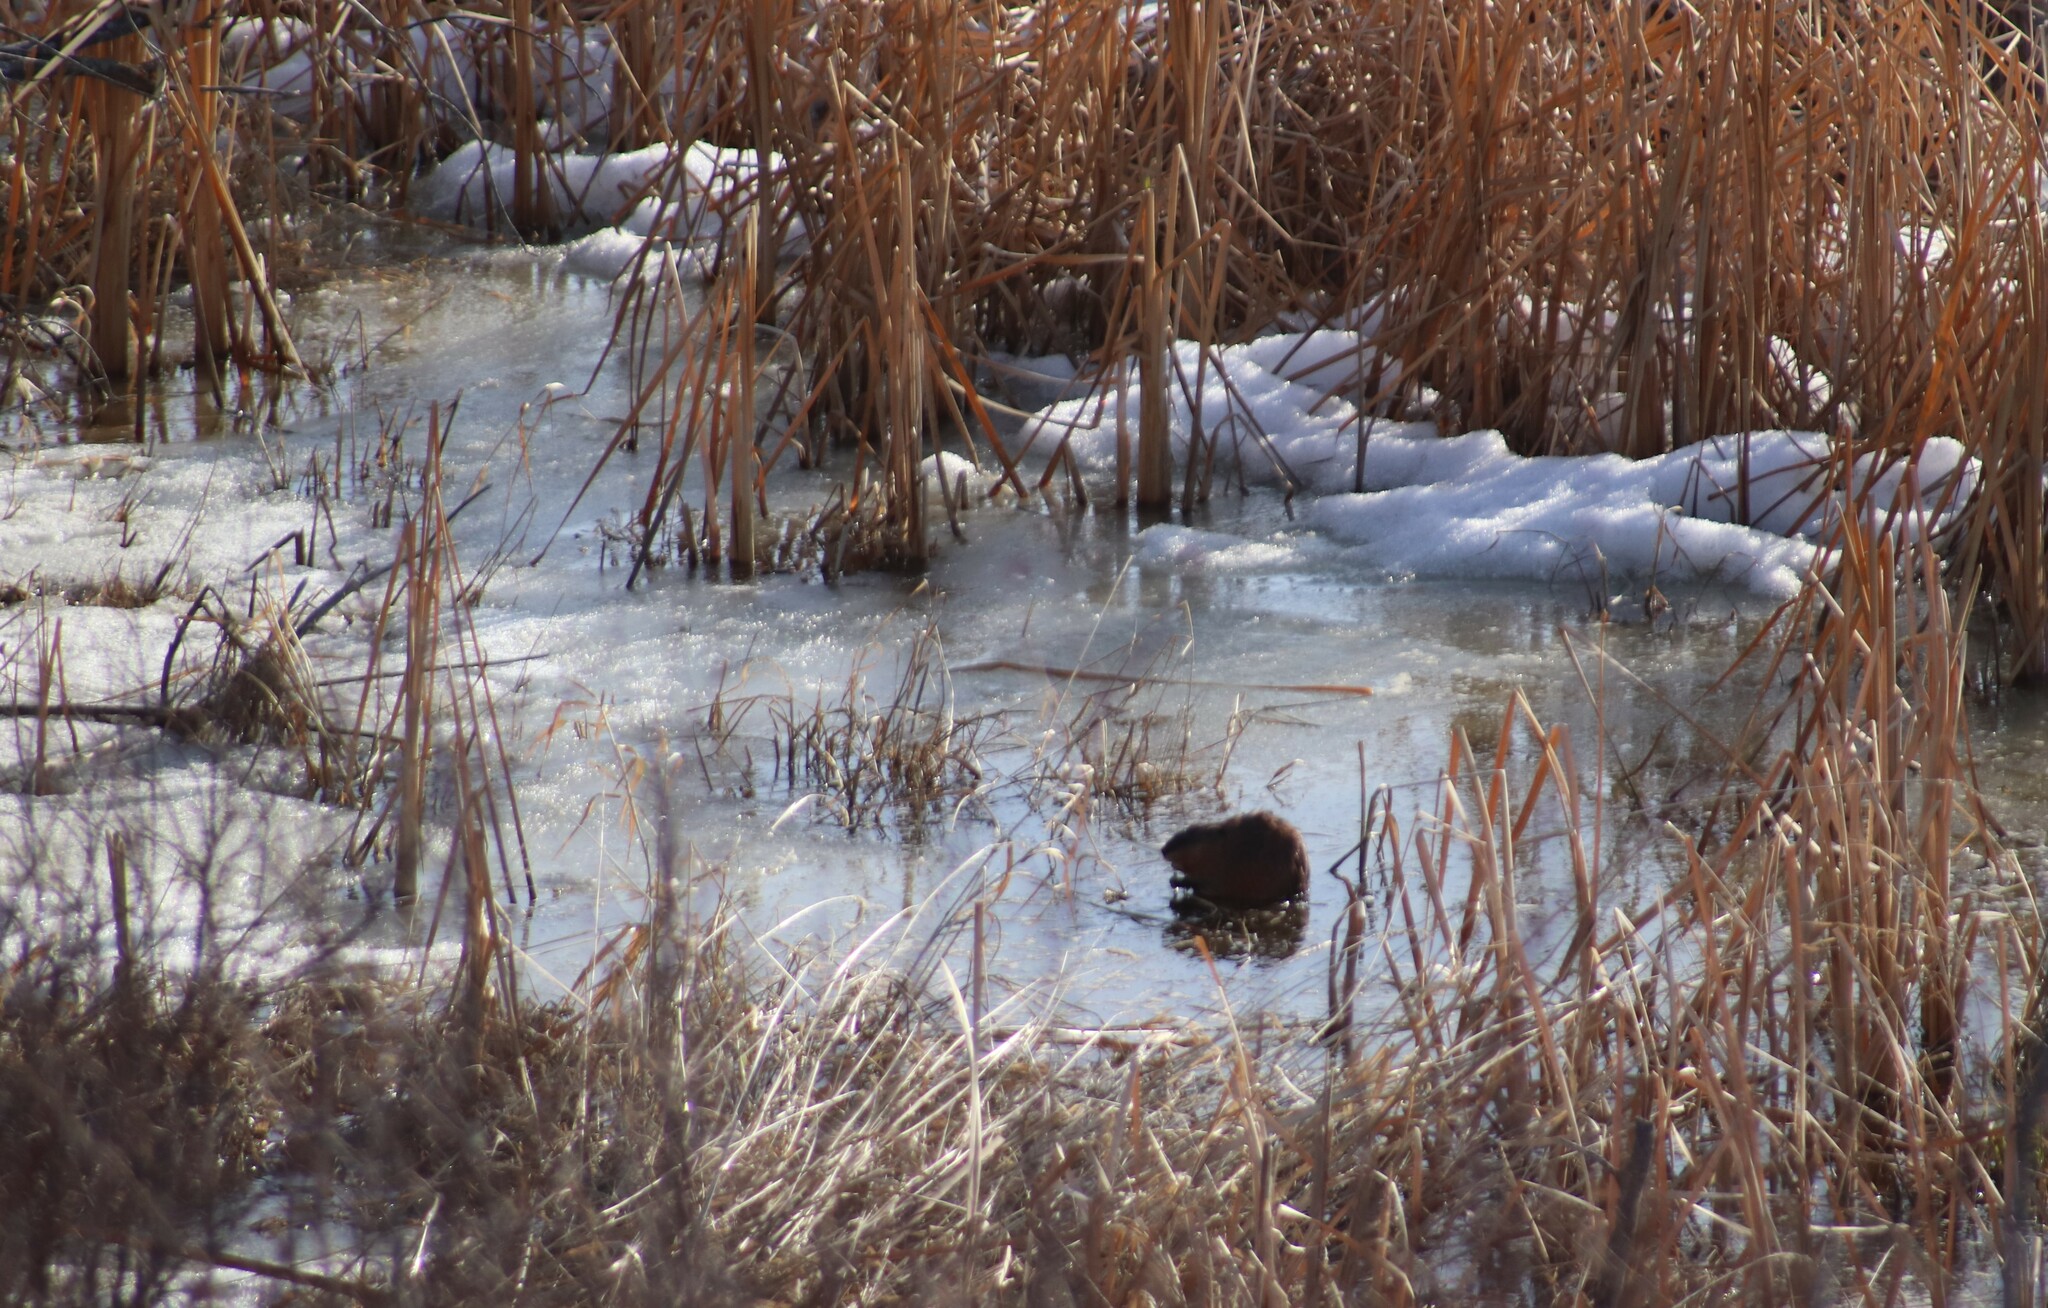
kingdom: Animalia
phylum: Chordata
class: Mammalia
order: Rodentia
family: Cricetidae
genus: Ondatra
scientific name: Ondatra zibethicus
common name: Muskrat
